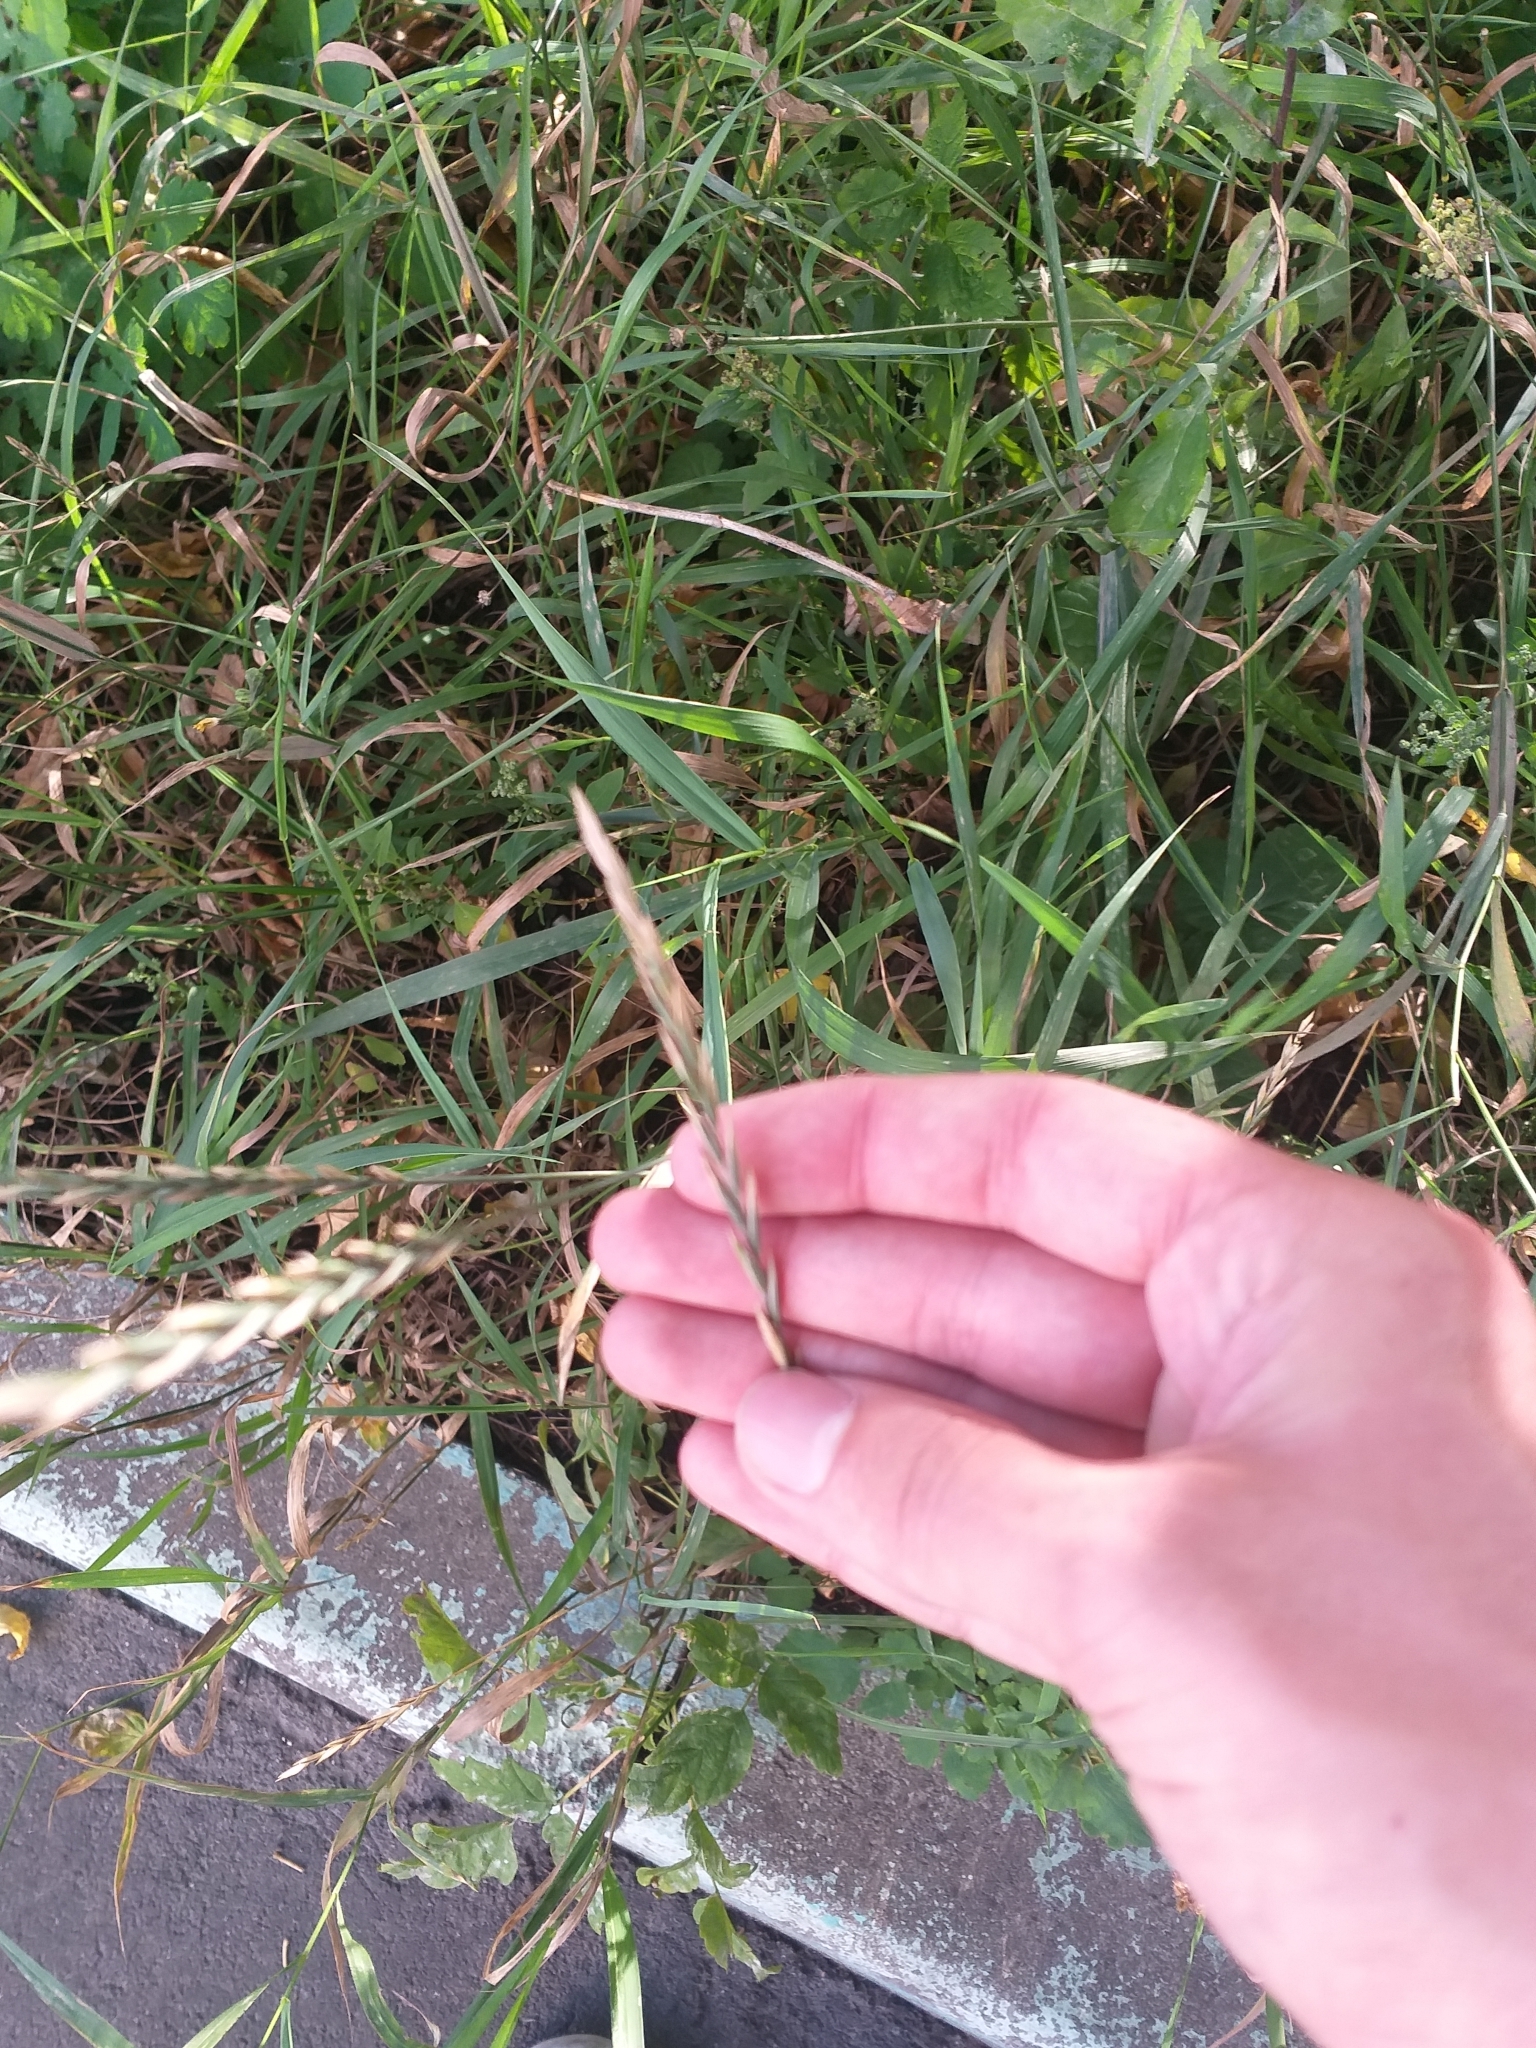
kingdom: Plantae
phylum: Tracheophyta
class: Liliopsida
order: Poales
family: Poaceae
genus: Elymus
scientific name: Elymus repens
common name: Quackgrass
